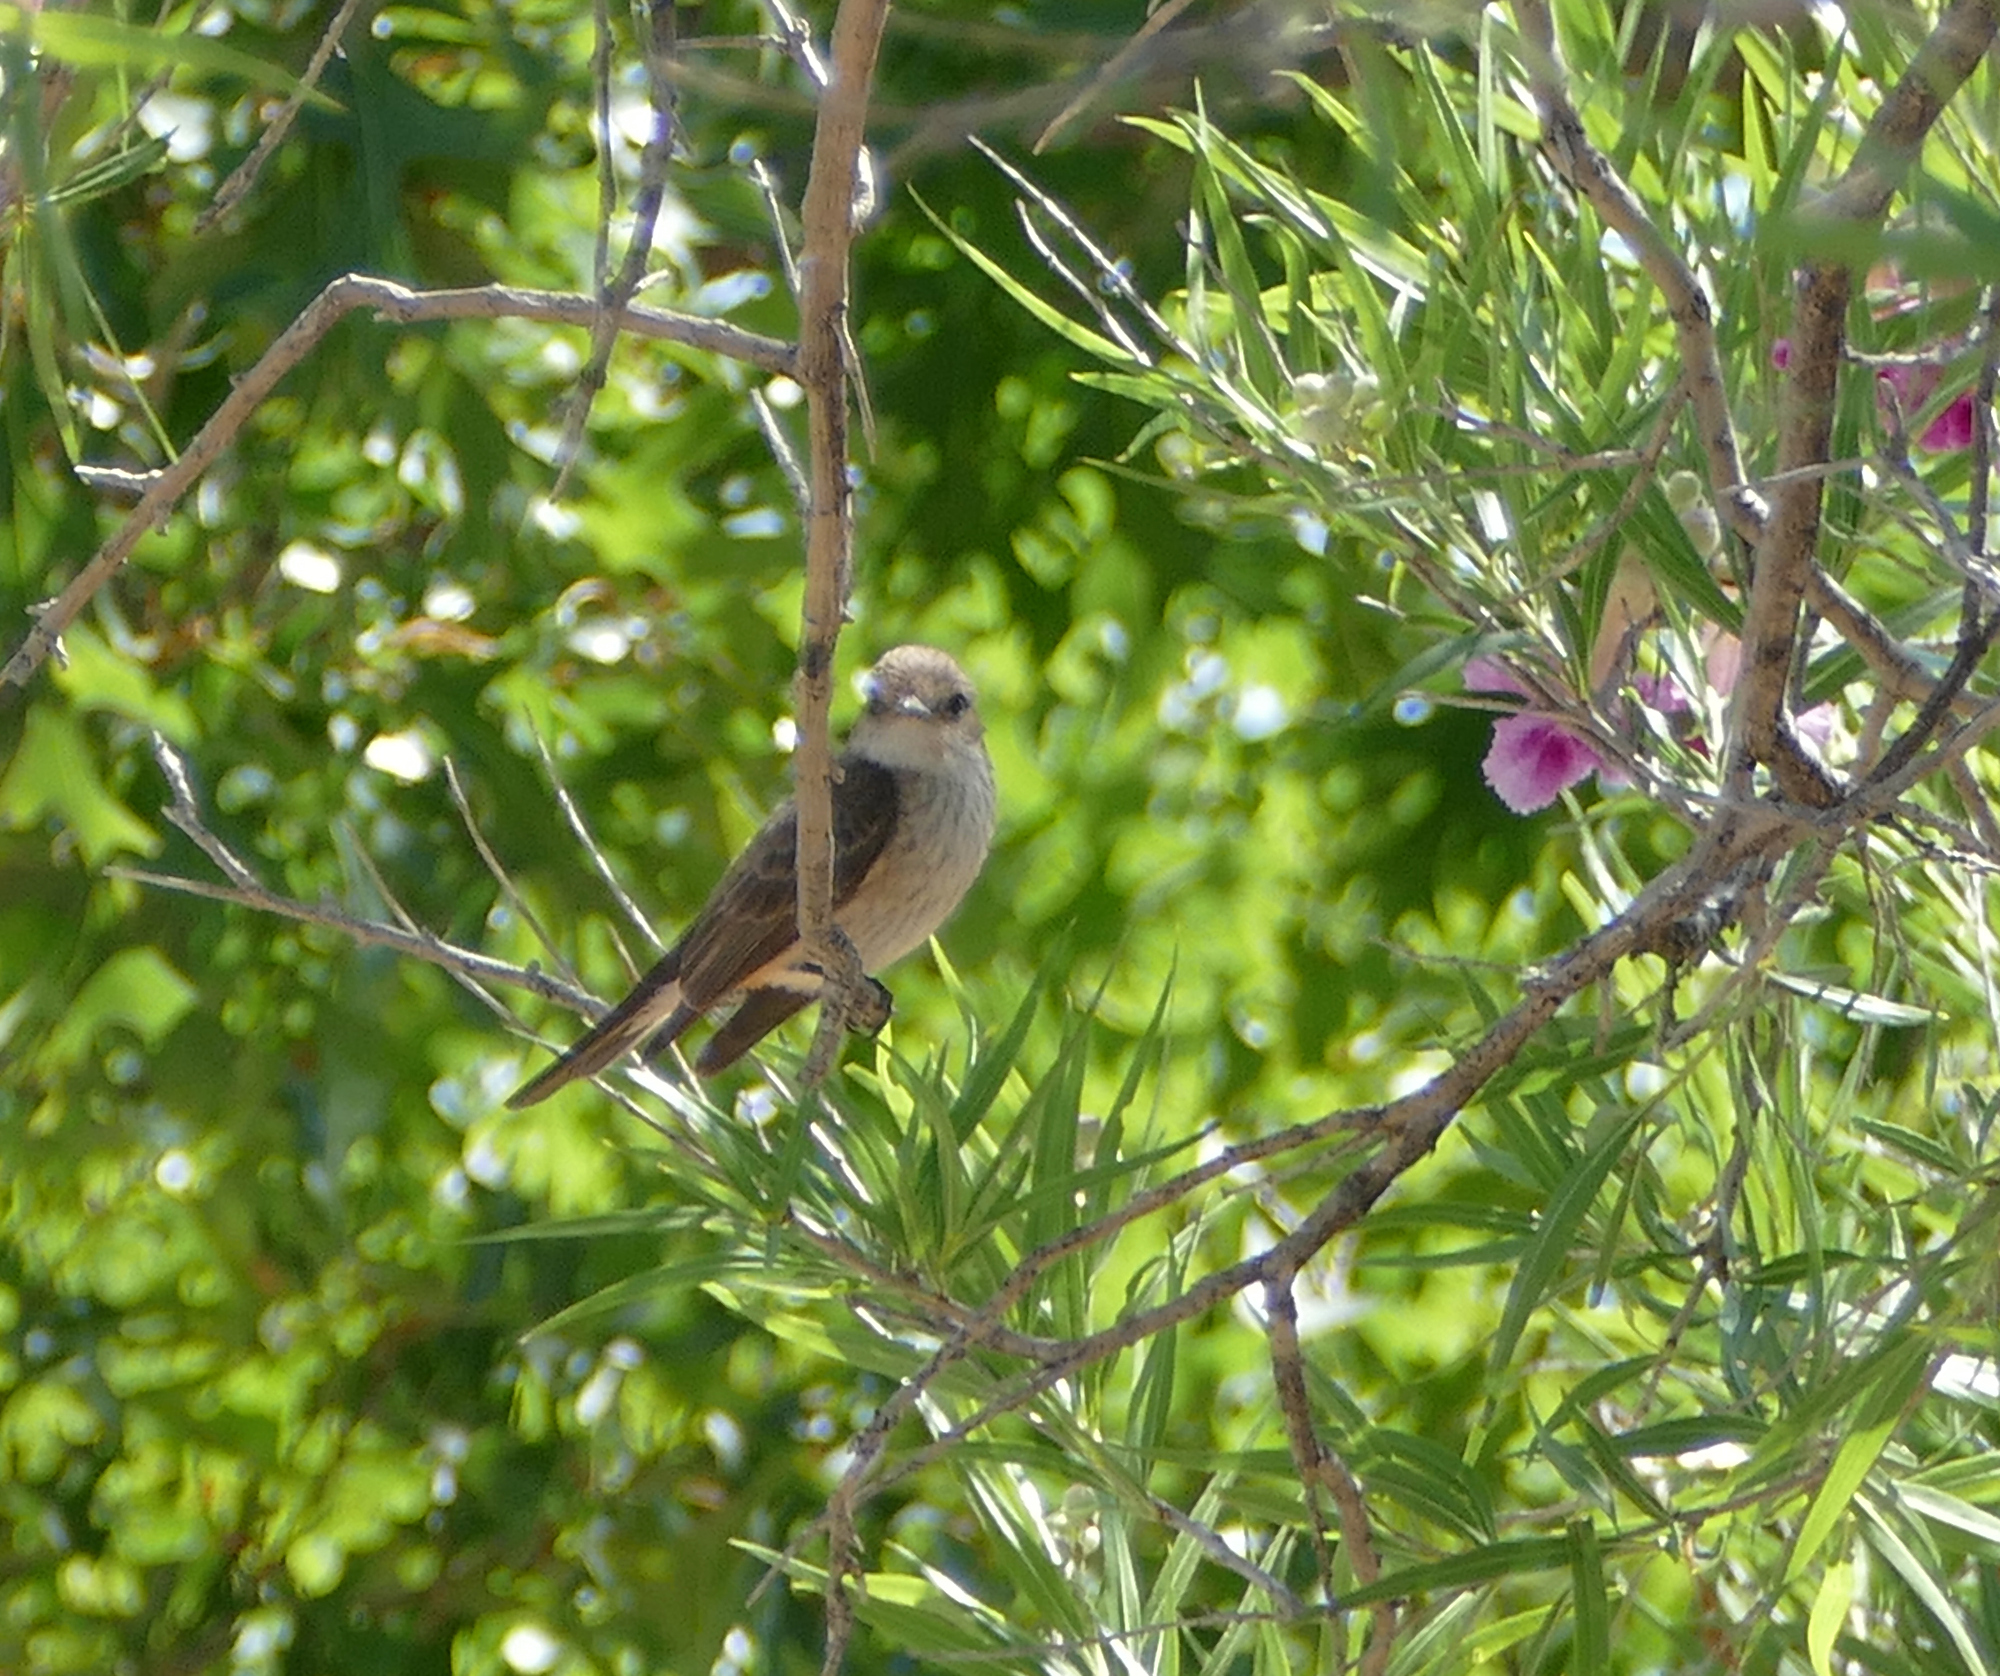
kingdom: Animalia
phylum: Chordata
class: Aves
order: Passeriformes
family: Tyrannidae
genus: Pyrocephalus
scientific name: Pyrocephalus rubinus
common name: Vermilion flycatcher
